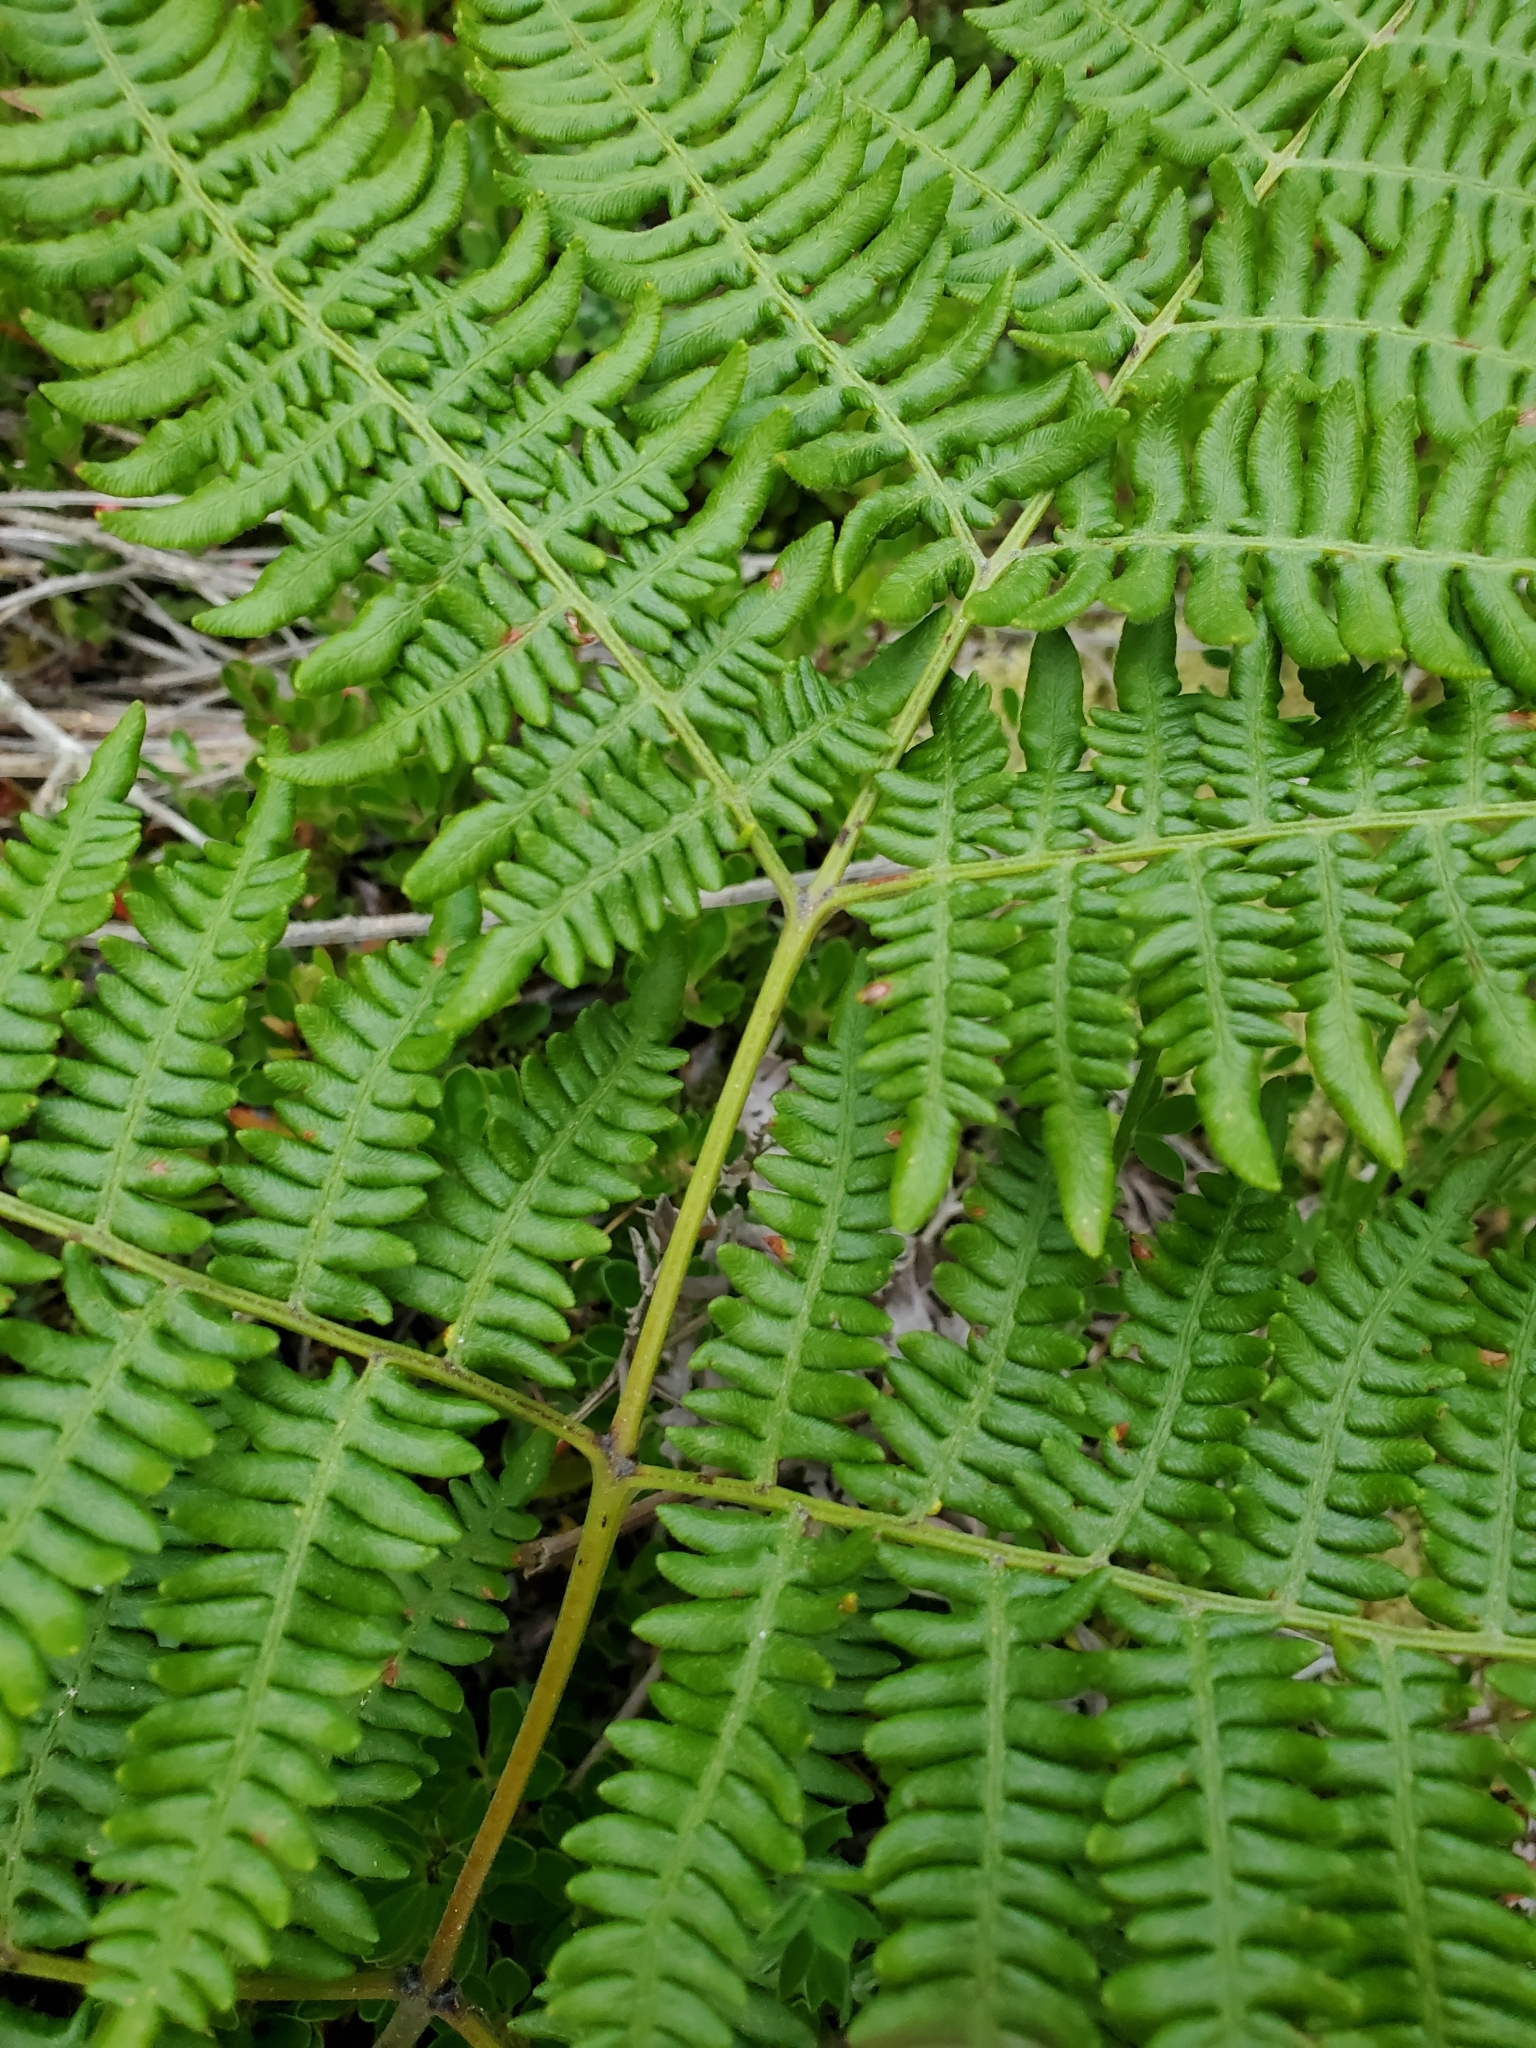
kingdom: Plantae
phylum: Tracheophyta
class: Polypodiopsida
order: Polypodiales
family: Dennstaedtiaceae
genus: Pteridium
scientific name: Pteridium aquilinum
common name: Bracken
